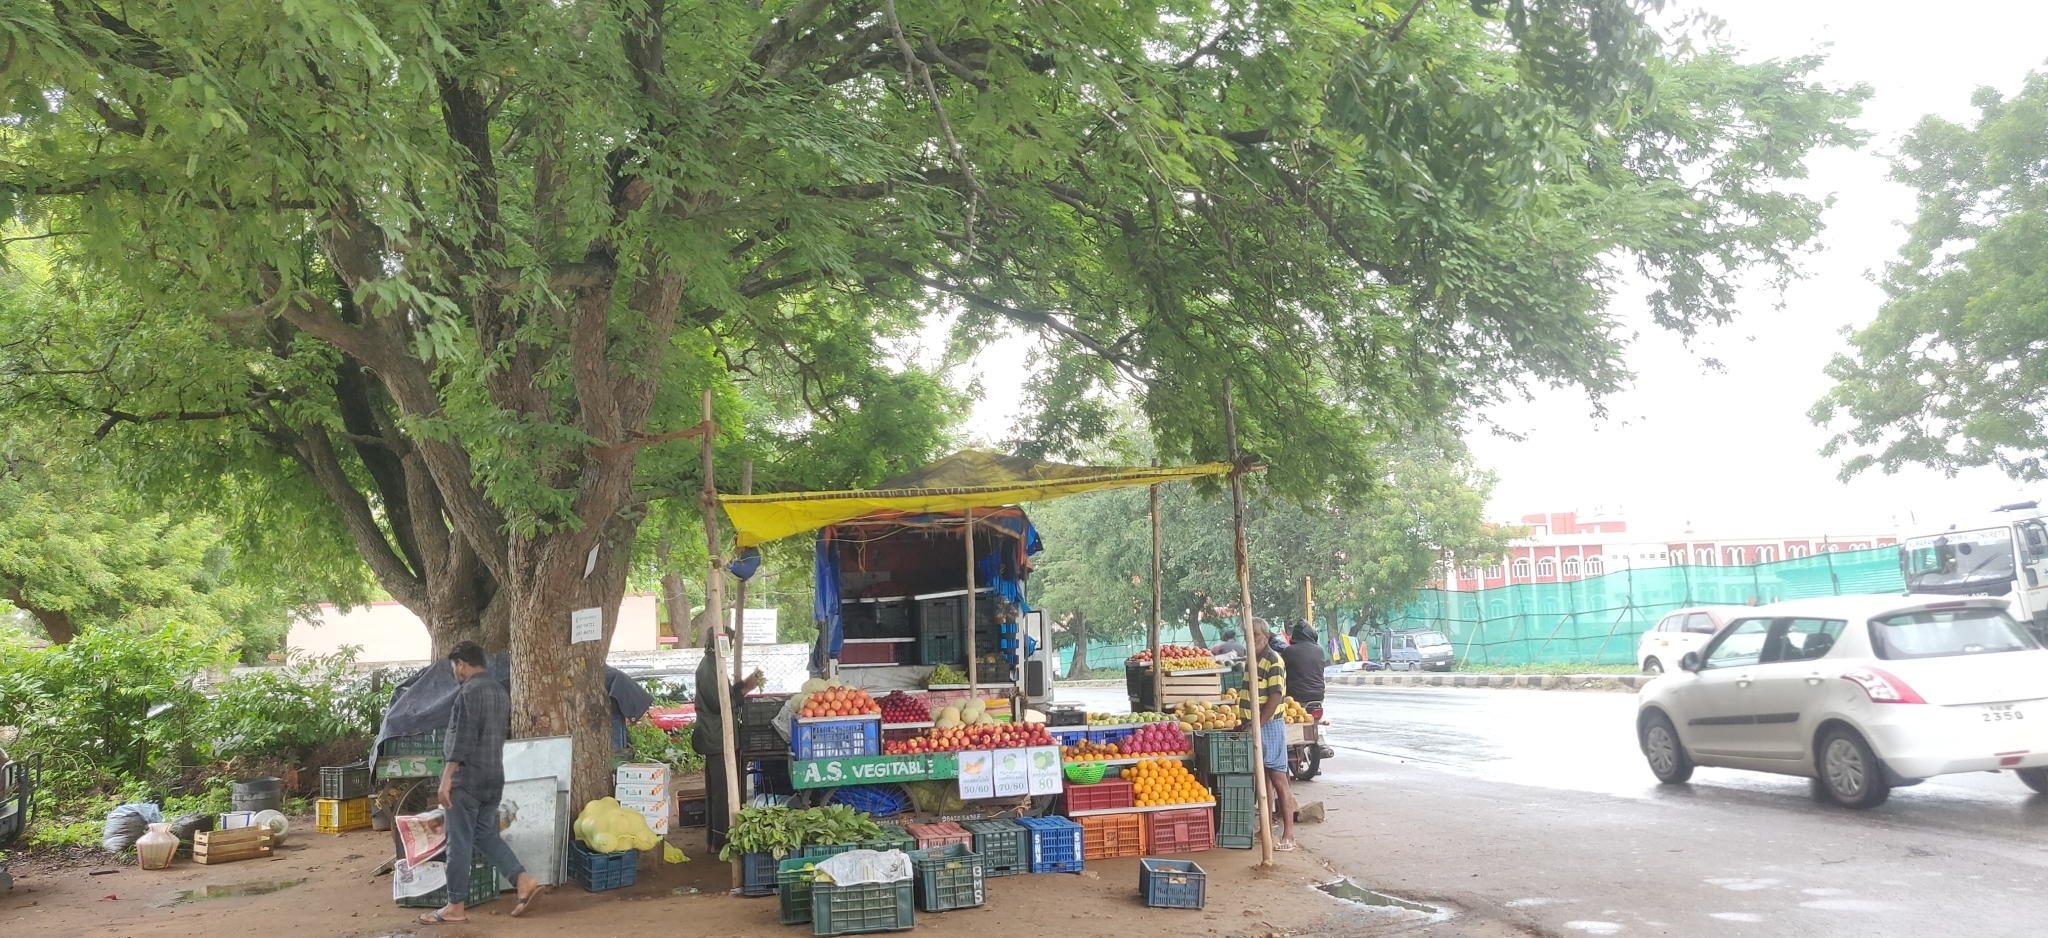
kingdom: Plantae
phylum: Tracheophyta
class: Magnoliopsida
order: Fabales
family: Fabaceae
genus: Tamarindus
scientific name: Tamarindus indica
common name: Tamarind
